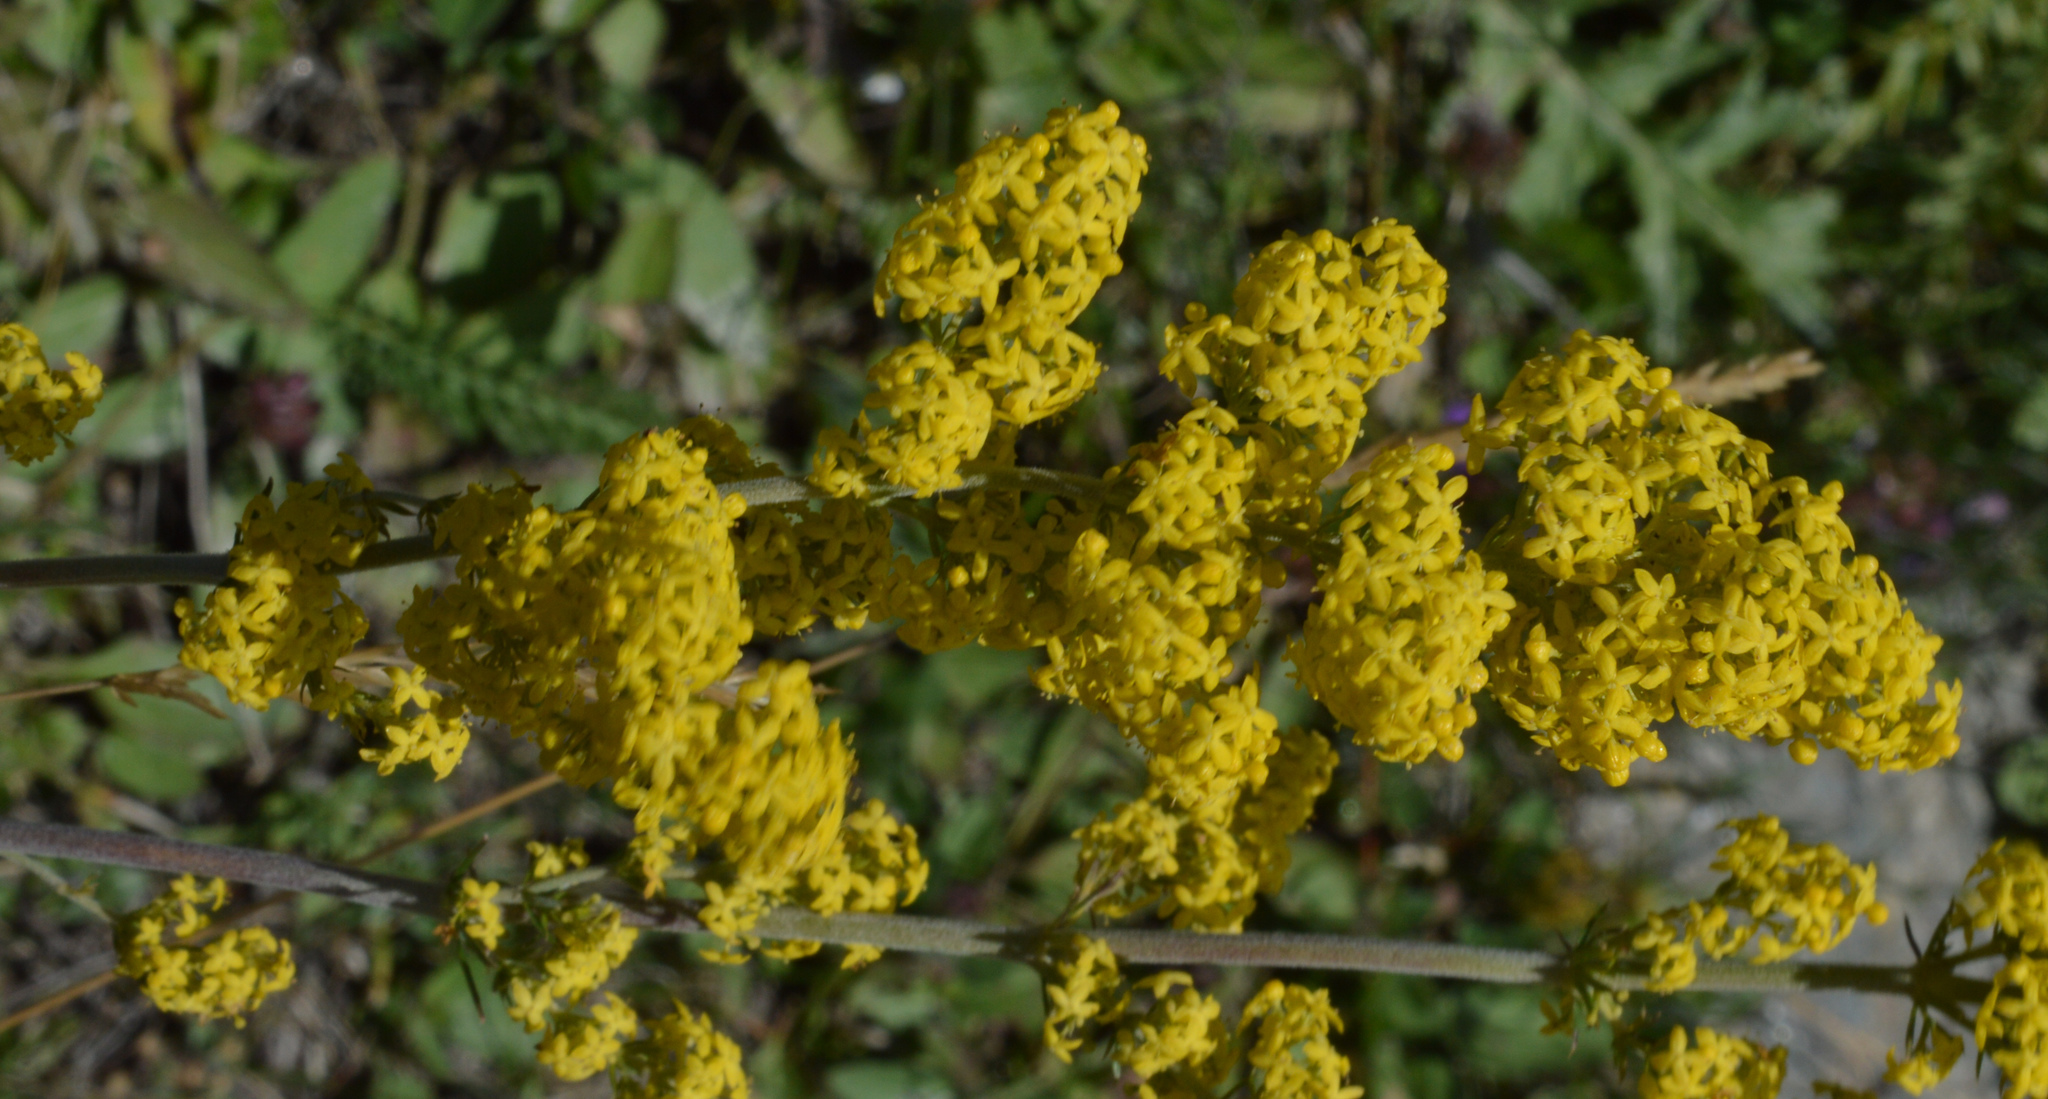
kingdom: Plantae
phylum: Tracheophyta
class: Magnoliopsida
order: Gentianales
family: Rubiaceae
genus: Galium
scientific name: Galium verum
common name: Lady's bedstraw
